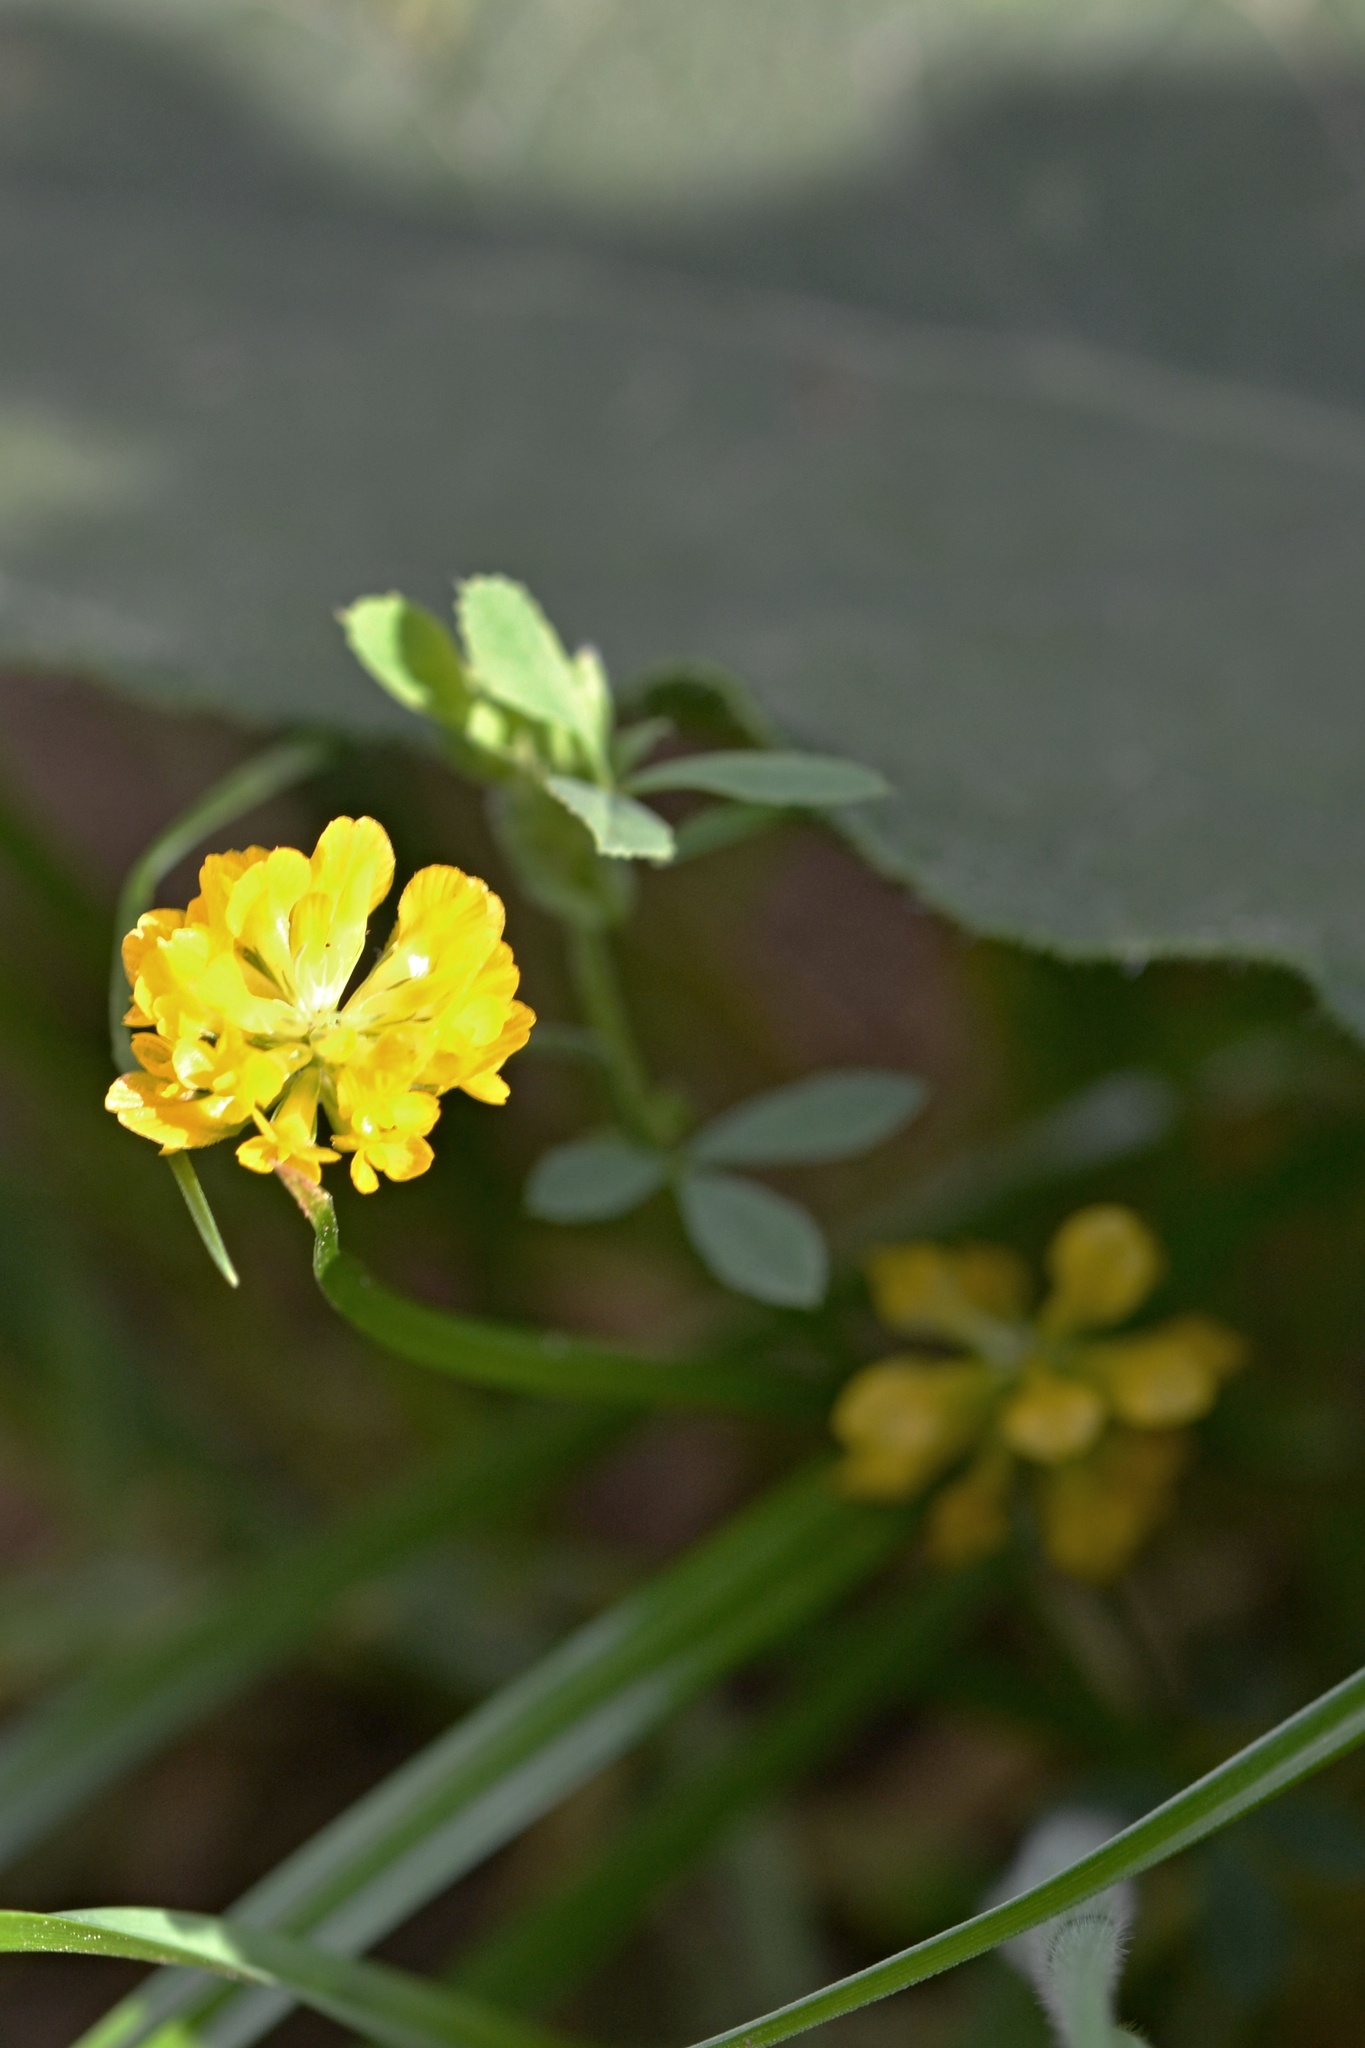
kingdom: Plantae
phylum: Tracheophyta
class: Magnoliopsida
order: Fabales
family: Fabaceae
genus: Trifolium
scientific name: Trifolium aureum
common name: Golden clover
